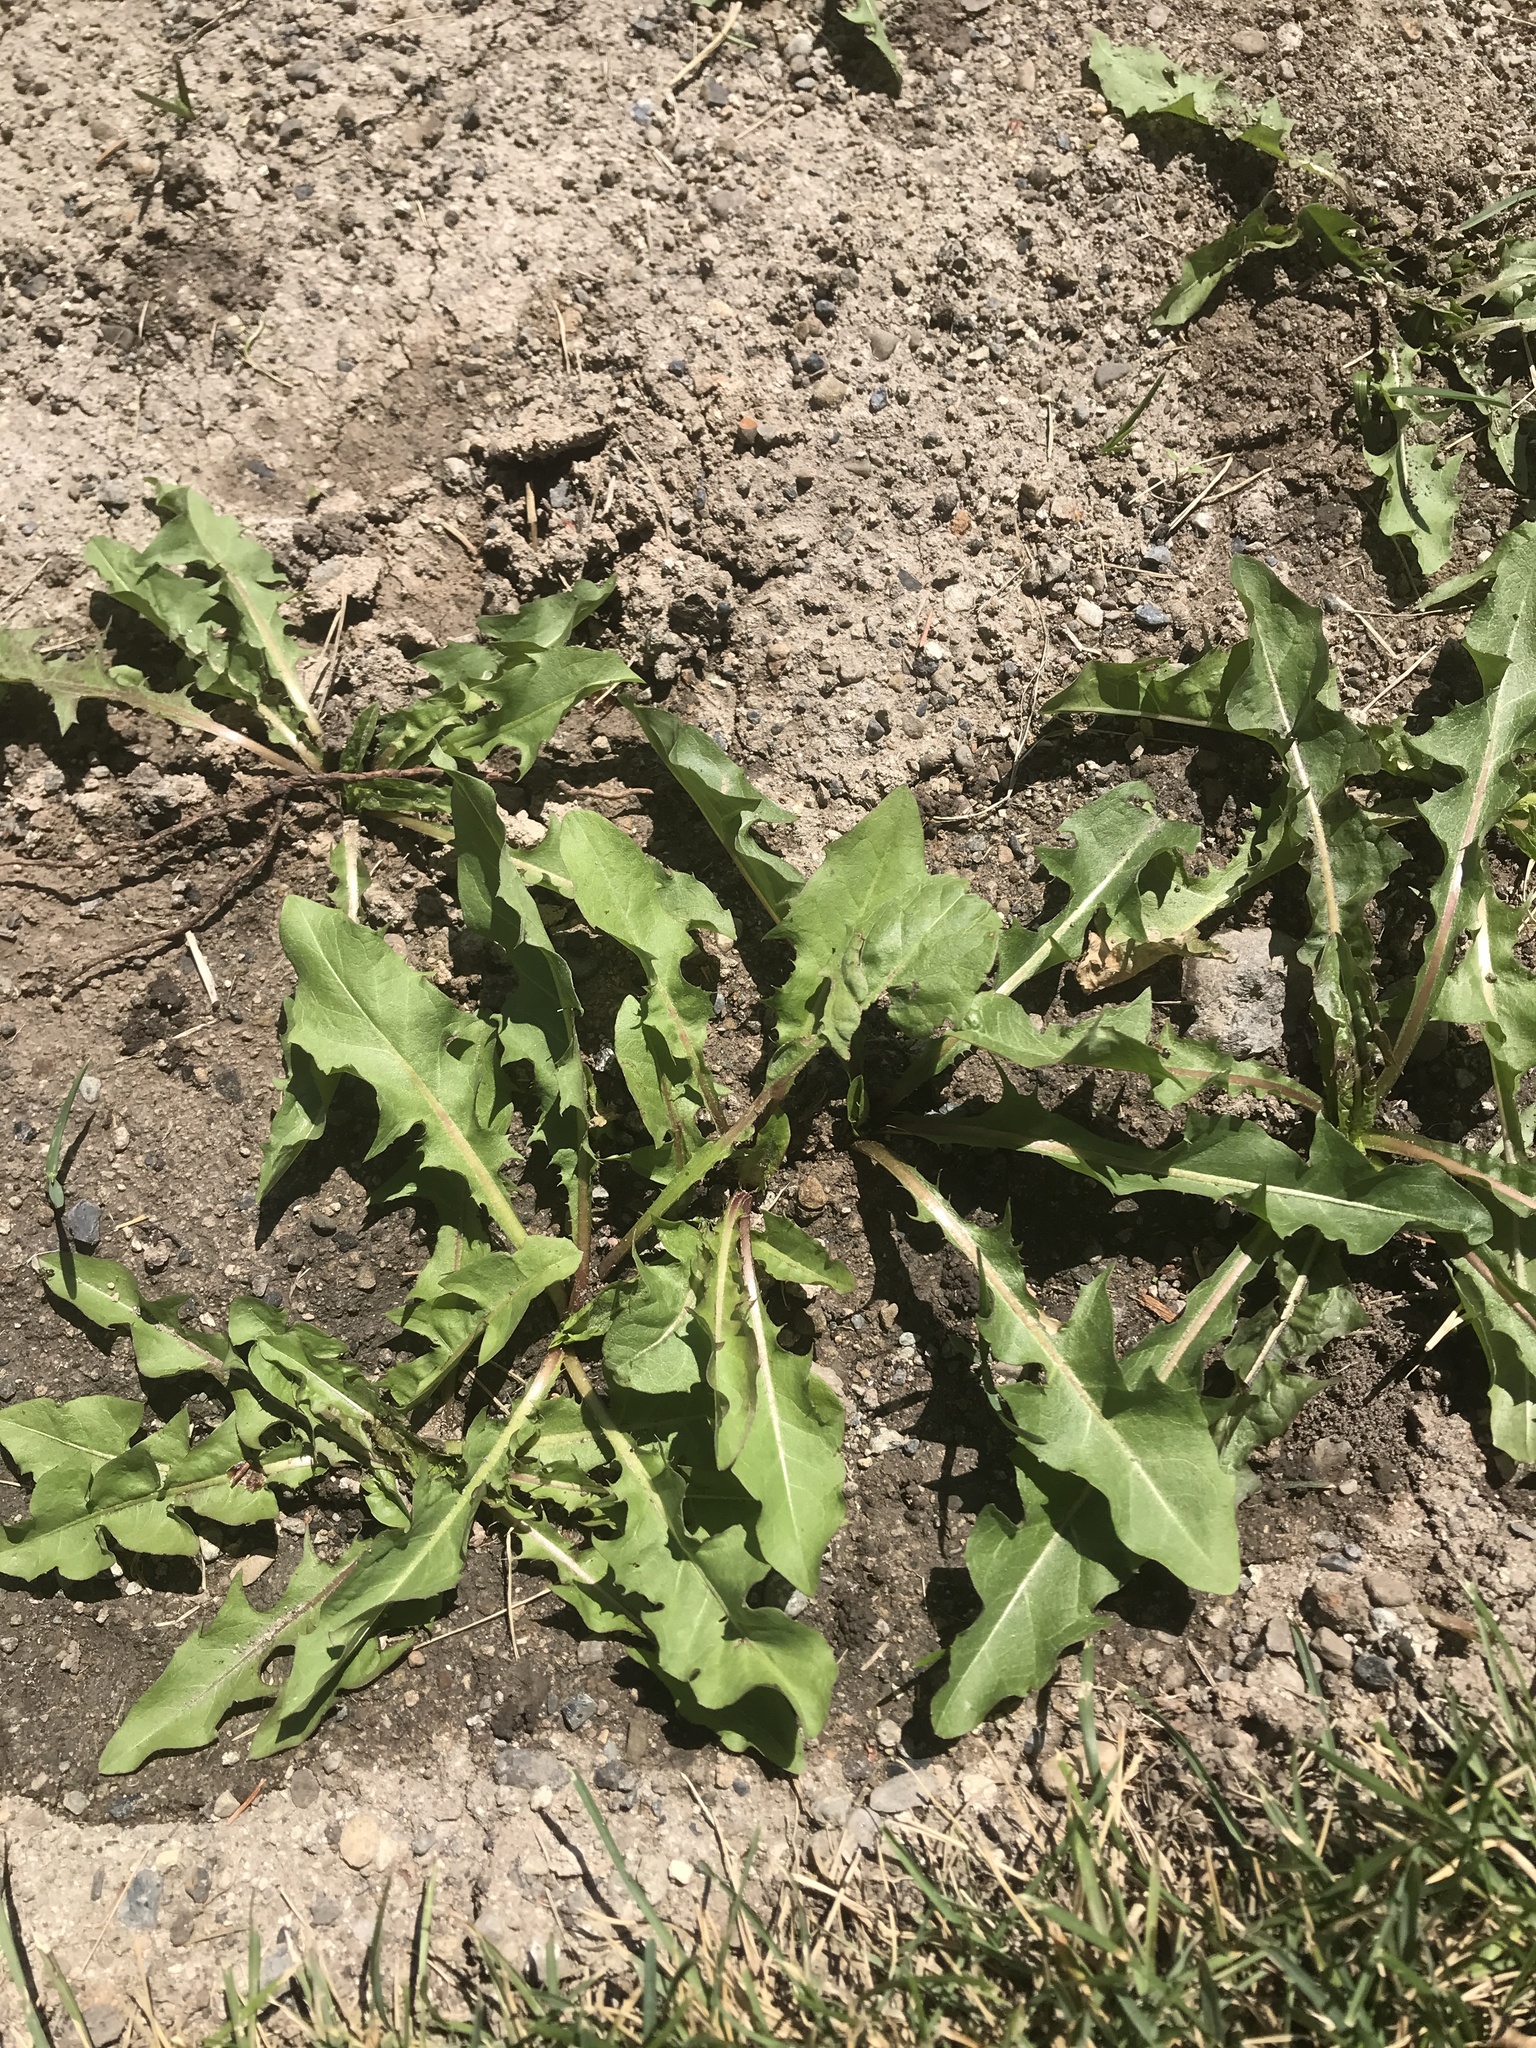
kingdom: Plantae
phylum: Tracheophyta
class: Magnoliopsida
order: Asterales
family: Asteraceae
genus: Taraxacum
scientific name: Taraxacum officinale
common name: Common dandelion
